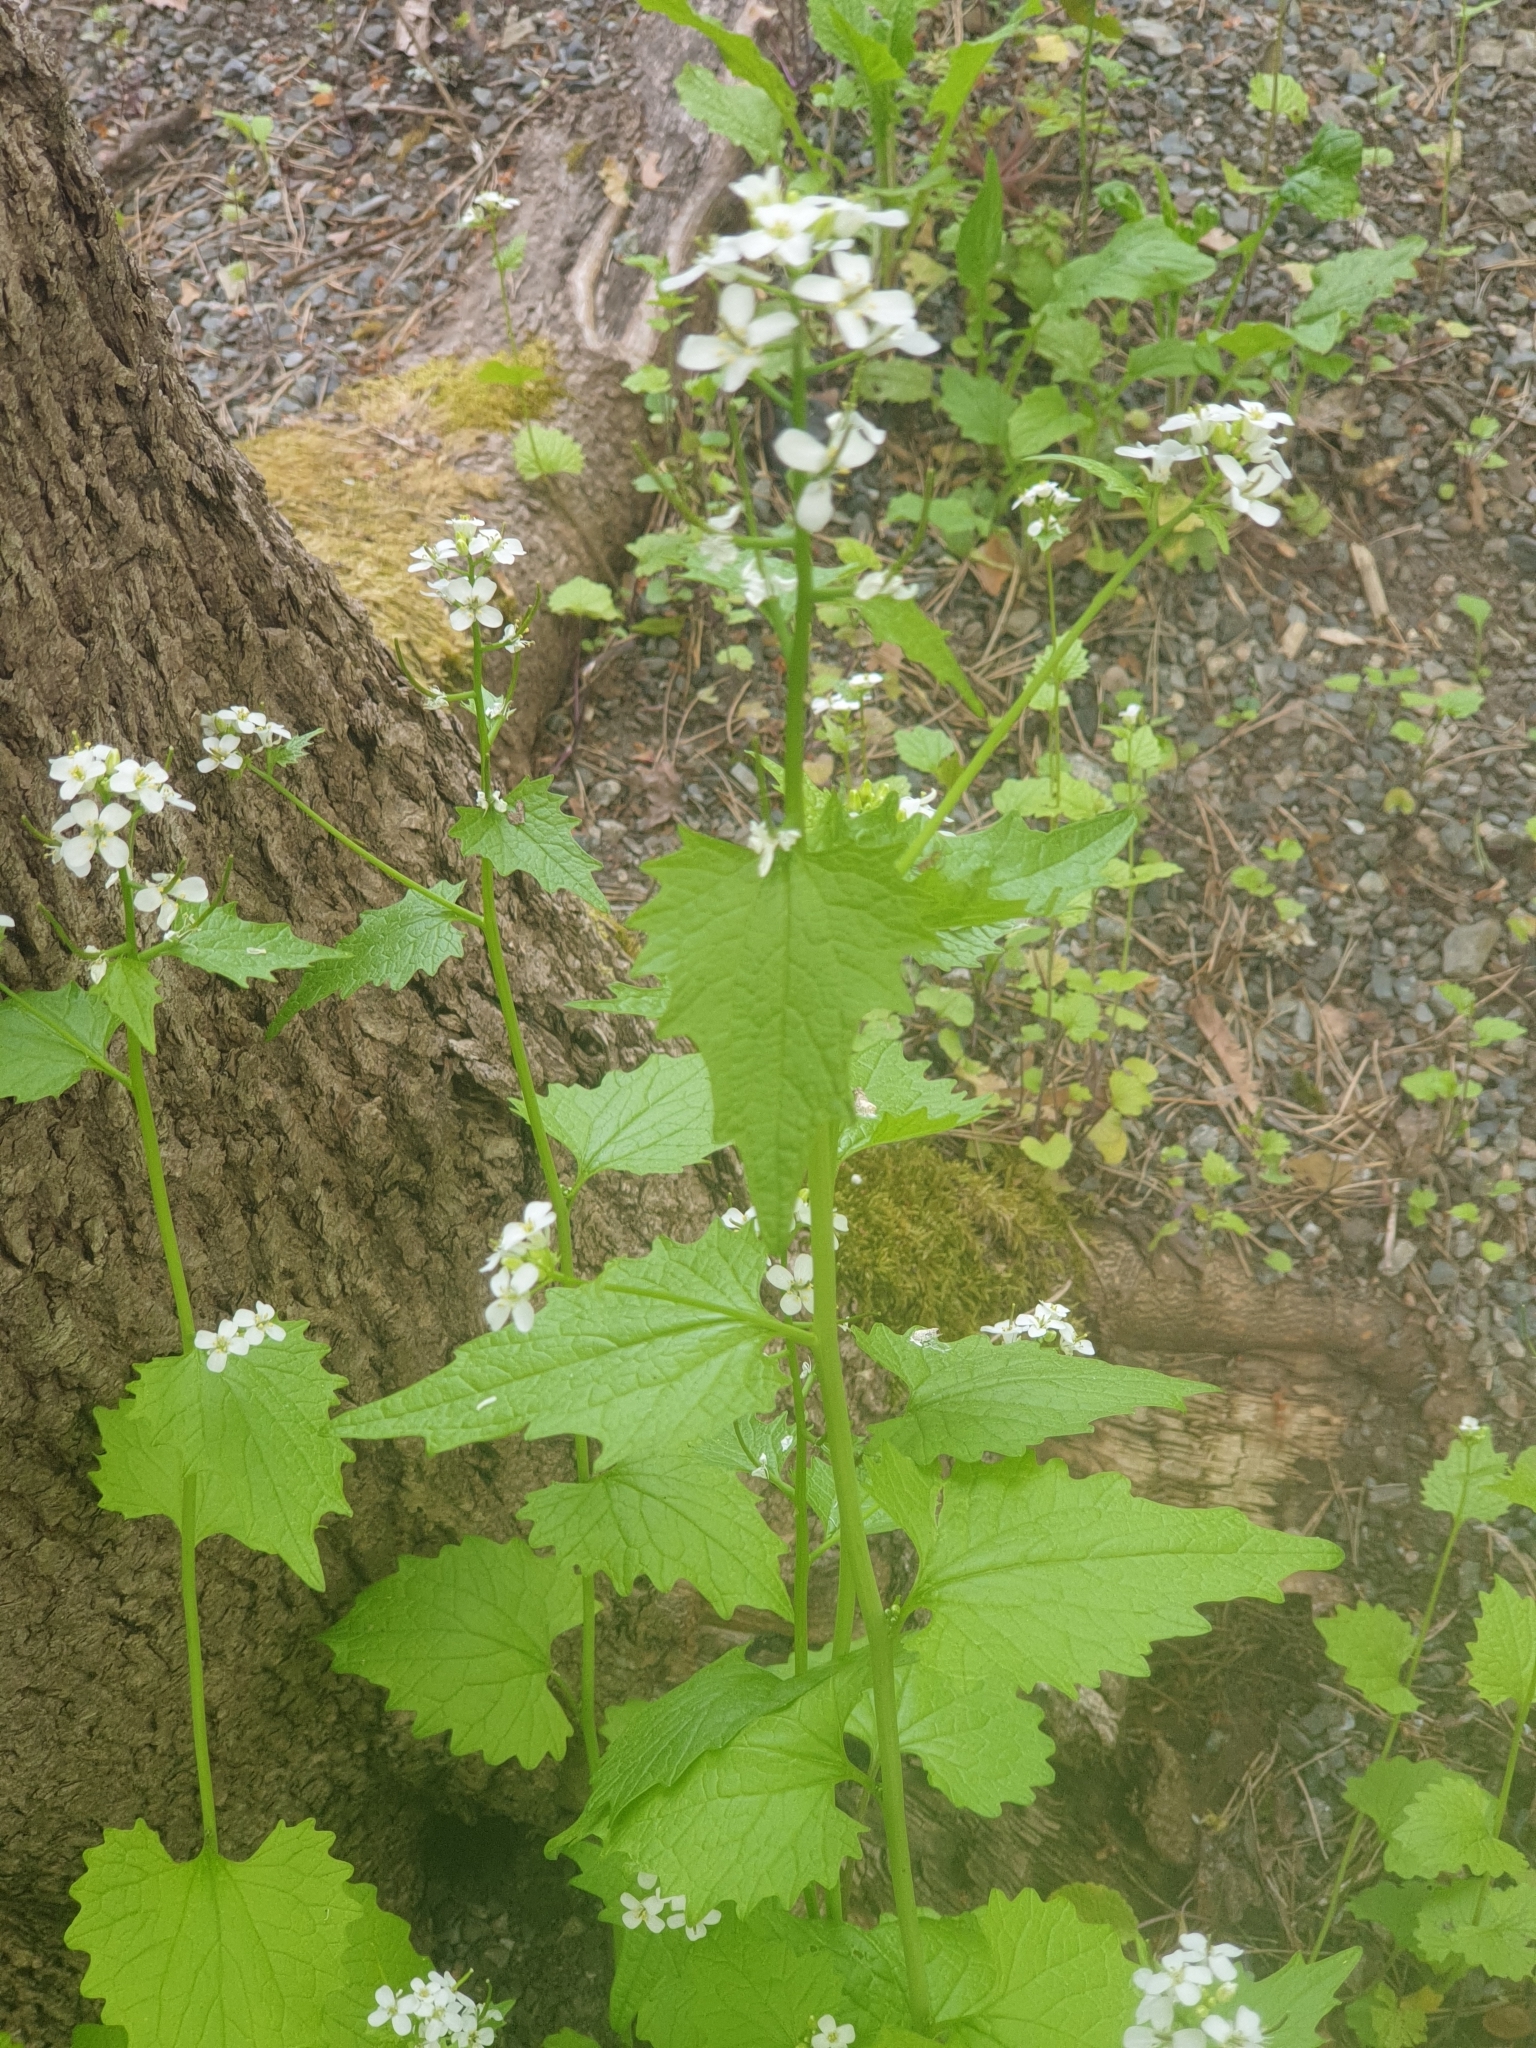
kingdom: Plantae
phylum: Tracheophyta
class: Magnoliopsida
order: Brassicales
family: Brassicaceae
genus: Alliaria
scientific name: Alliaria petiolata
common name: Garlic mustard
